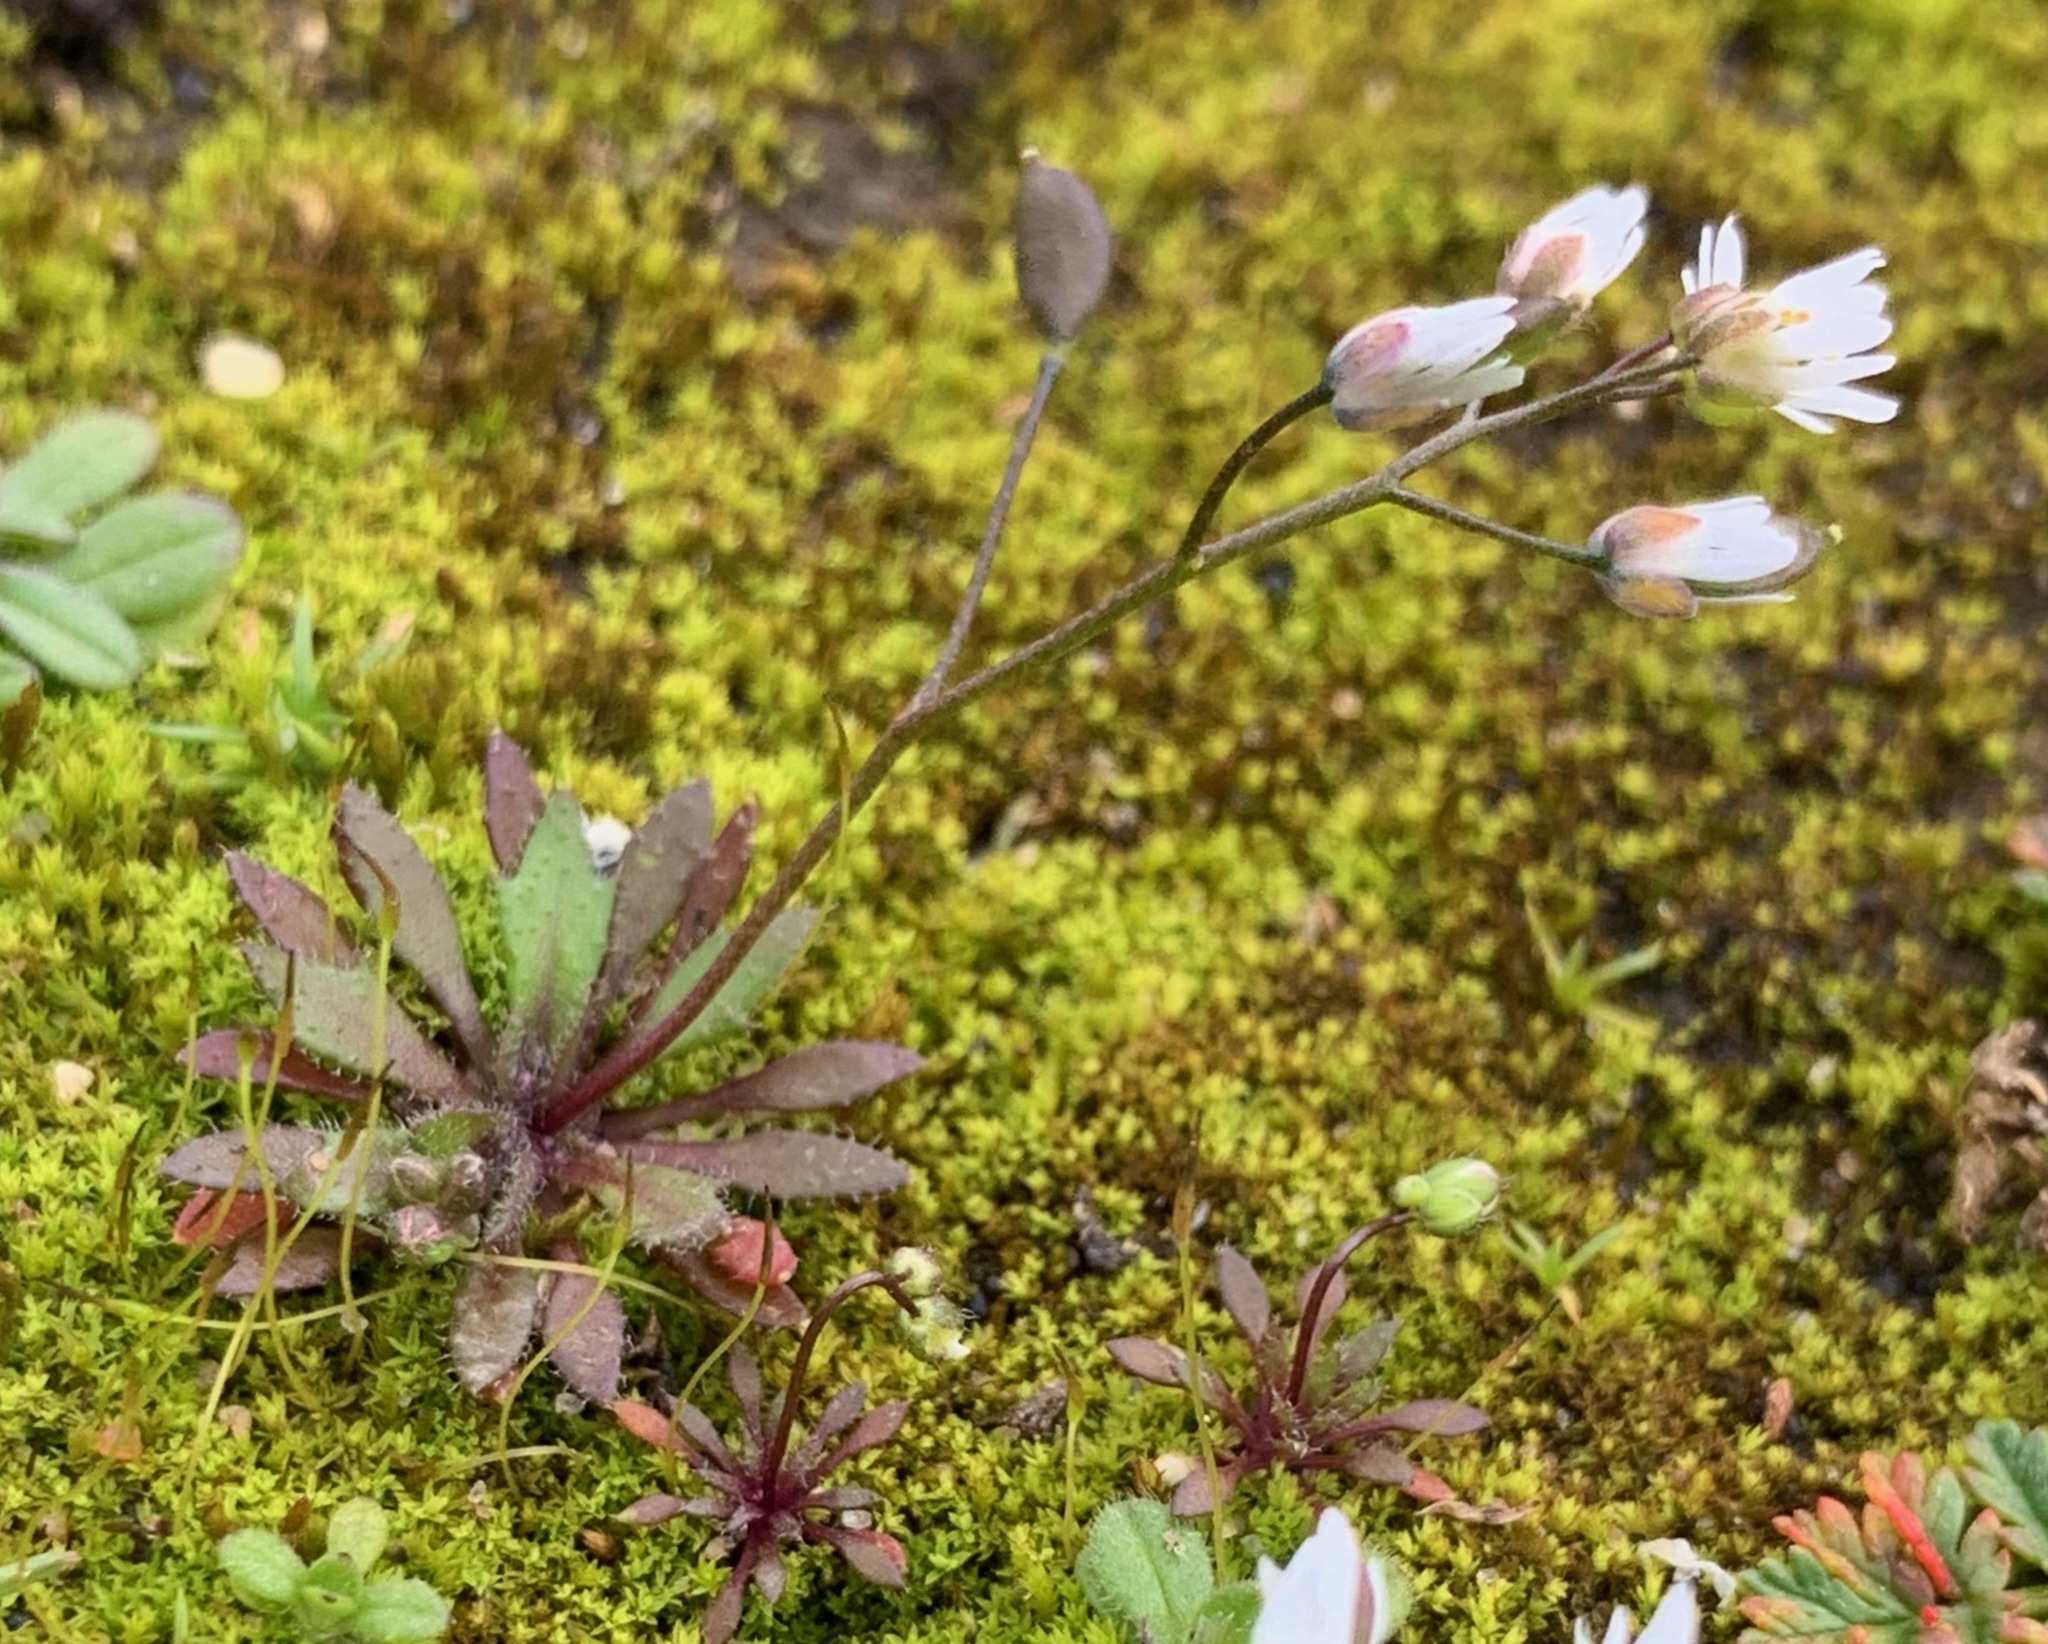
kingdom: Plantae
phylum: Tracheophyta
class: Magnoliopsida
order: Brassicales
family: Brassicaceae
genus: Draba
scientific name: Draba verna
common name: Spring draba
